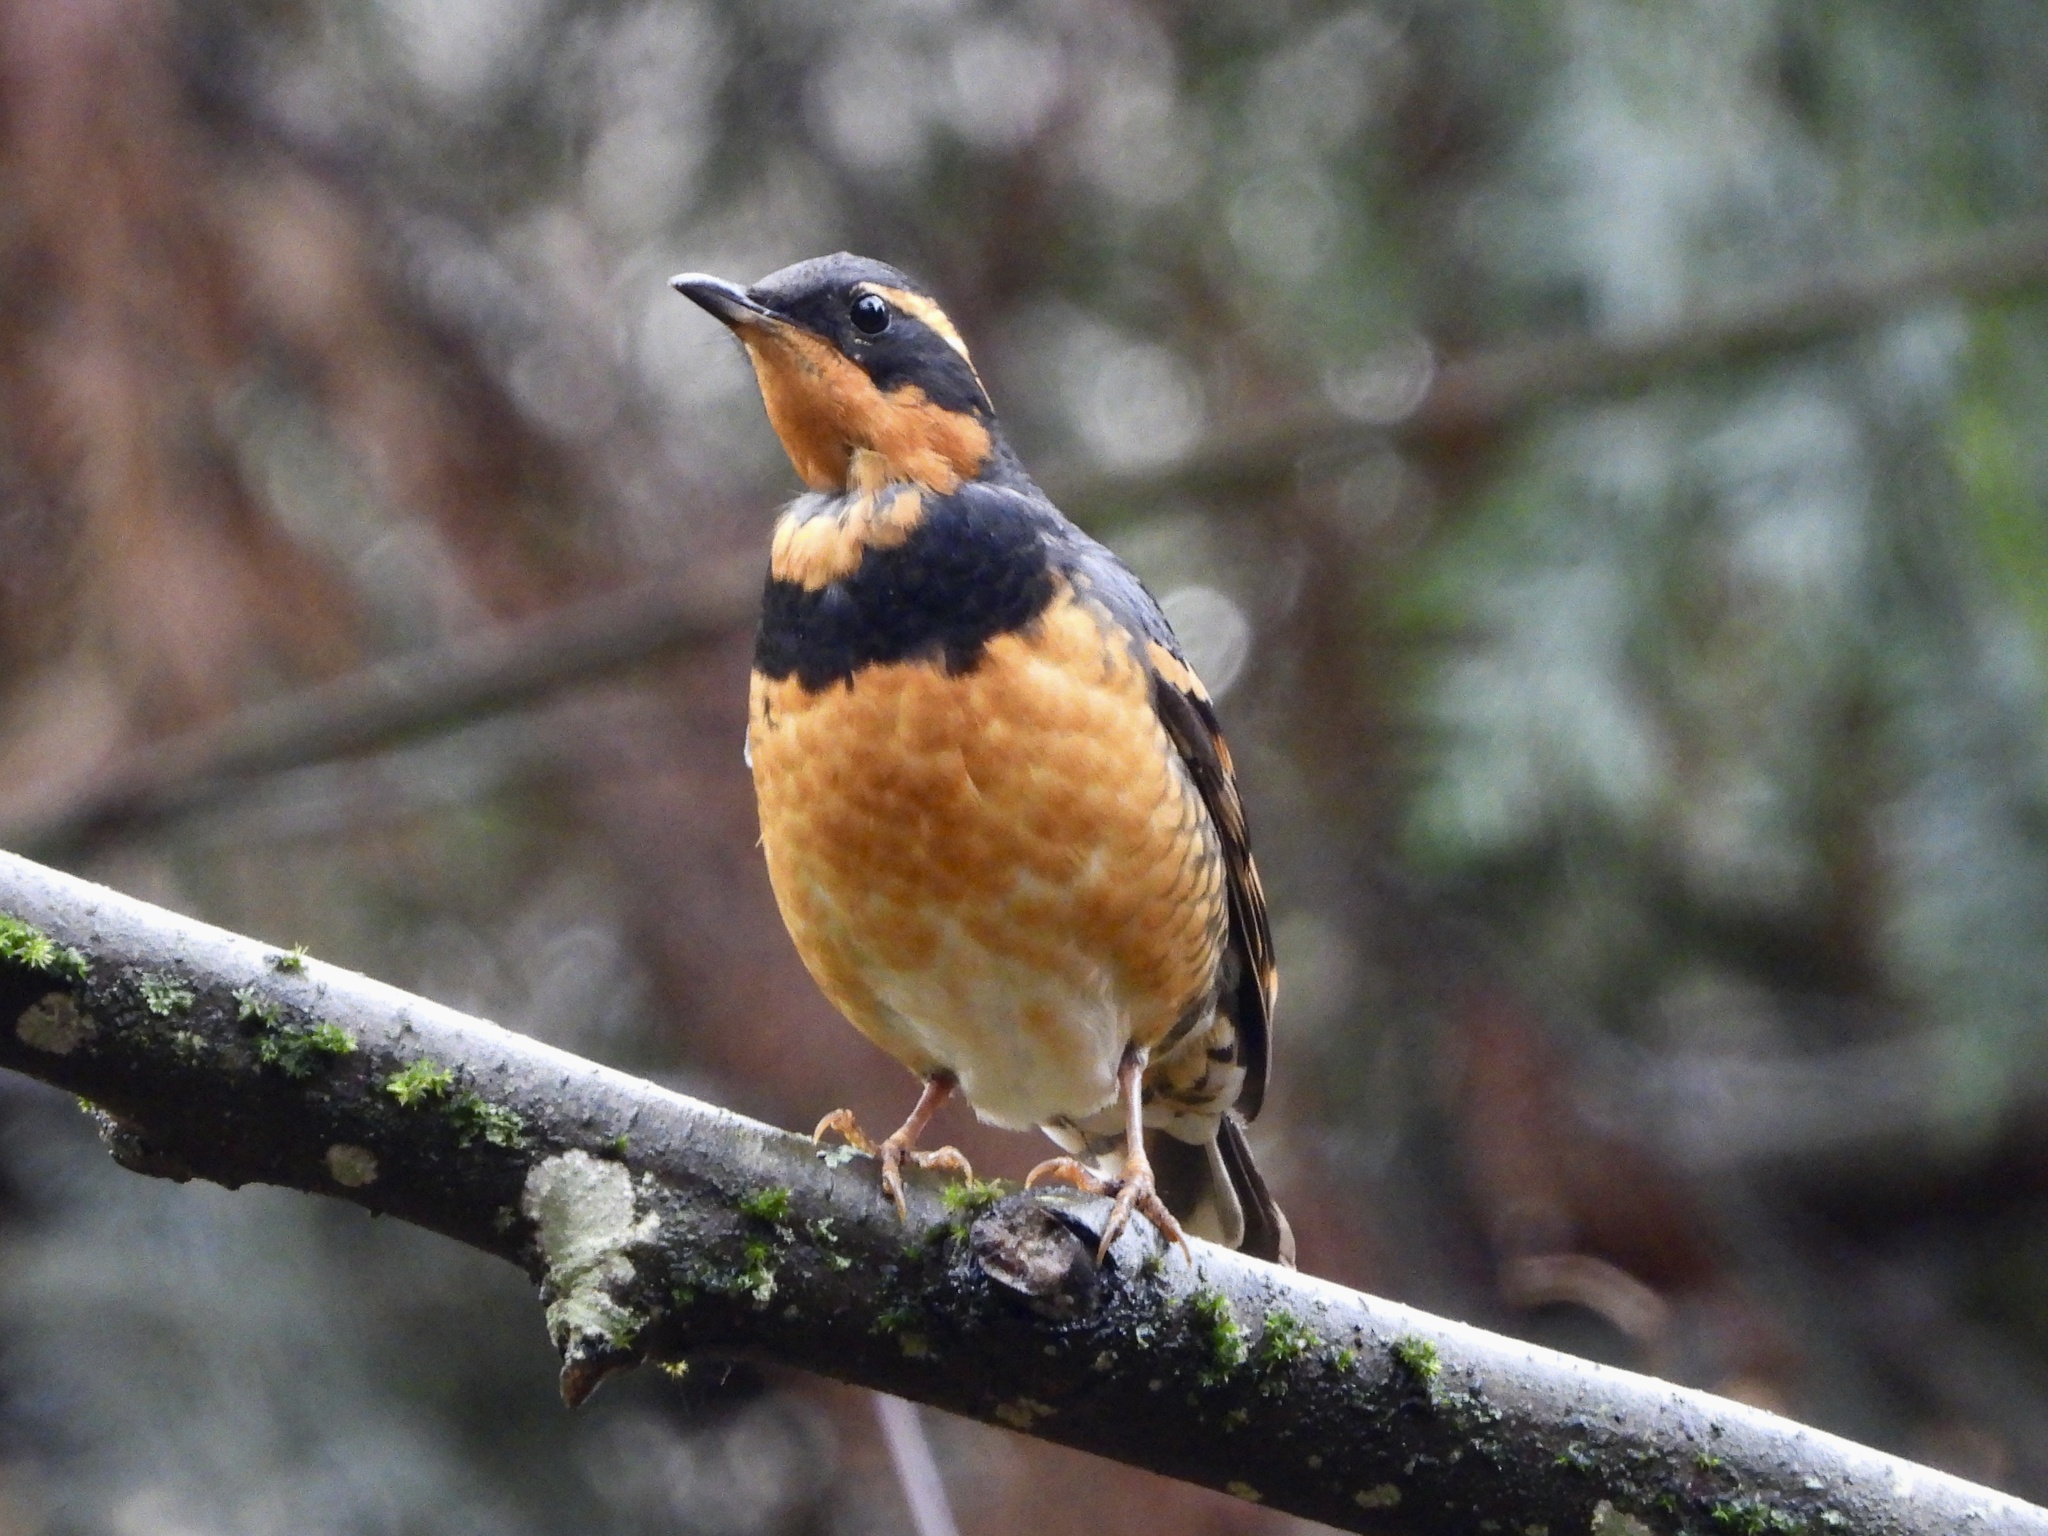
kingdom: Animalia
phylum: Chordata
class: Aves
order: Passeriformes
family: Turdidae
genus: Ixoreus
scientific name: Ixoreus naevius
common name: Varied thrush
